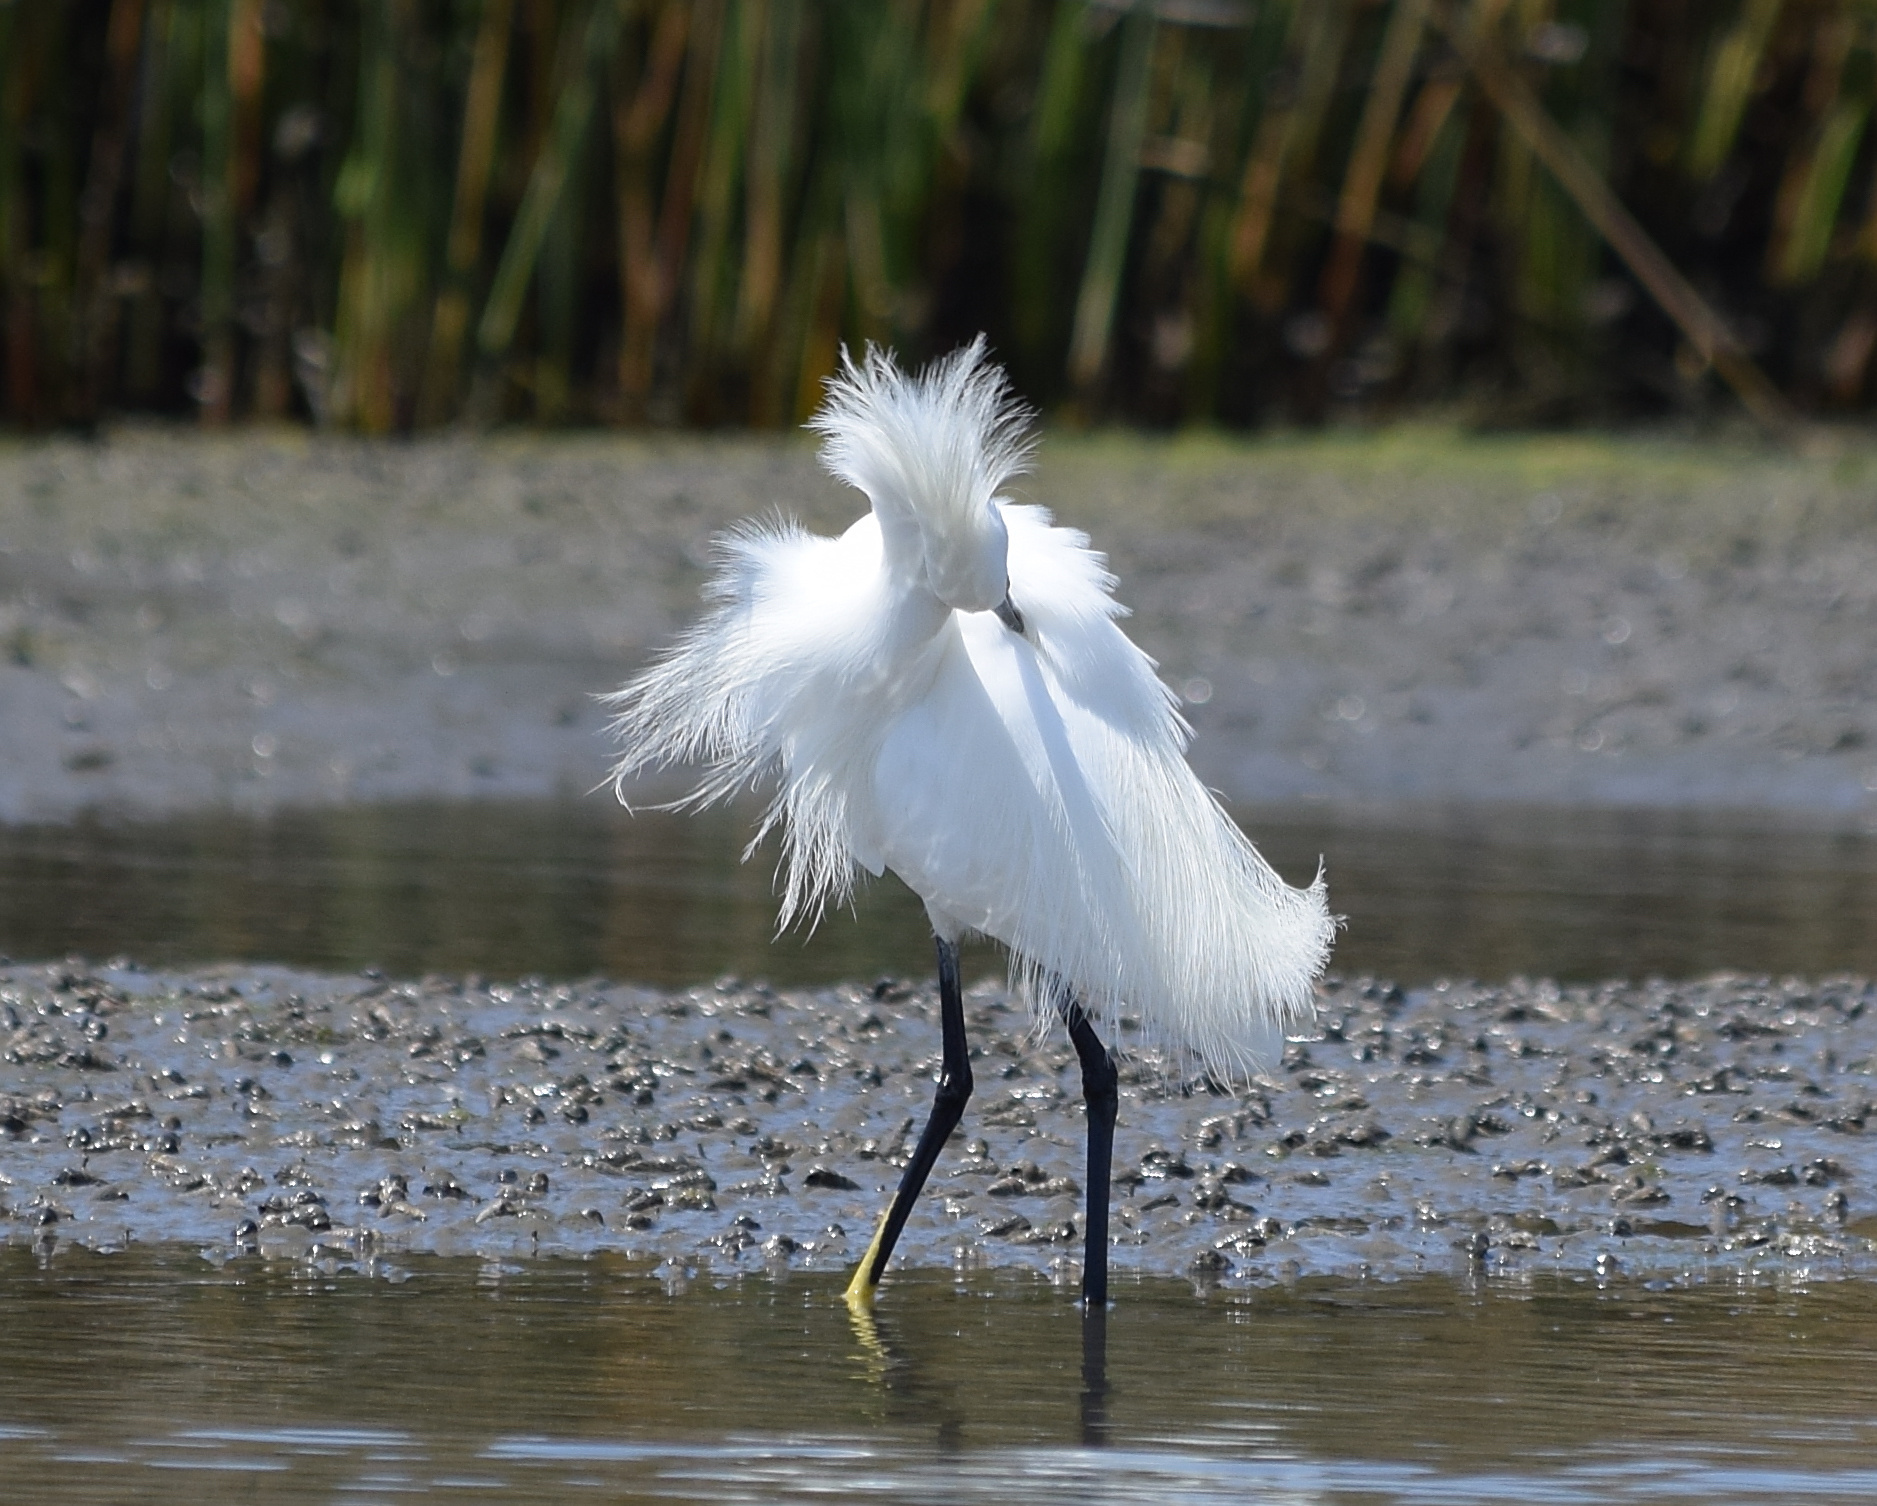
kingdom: Animalia
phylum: Chordata
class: Aves
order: Pelecaniformes
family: Ardeidae
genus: Egretta
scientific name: Egretta thula
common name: Snowy egret
